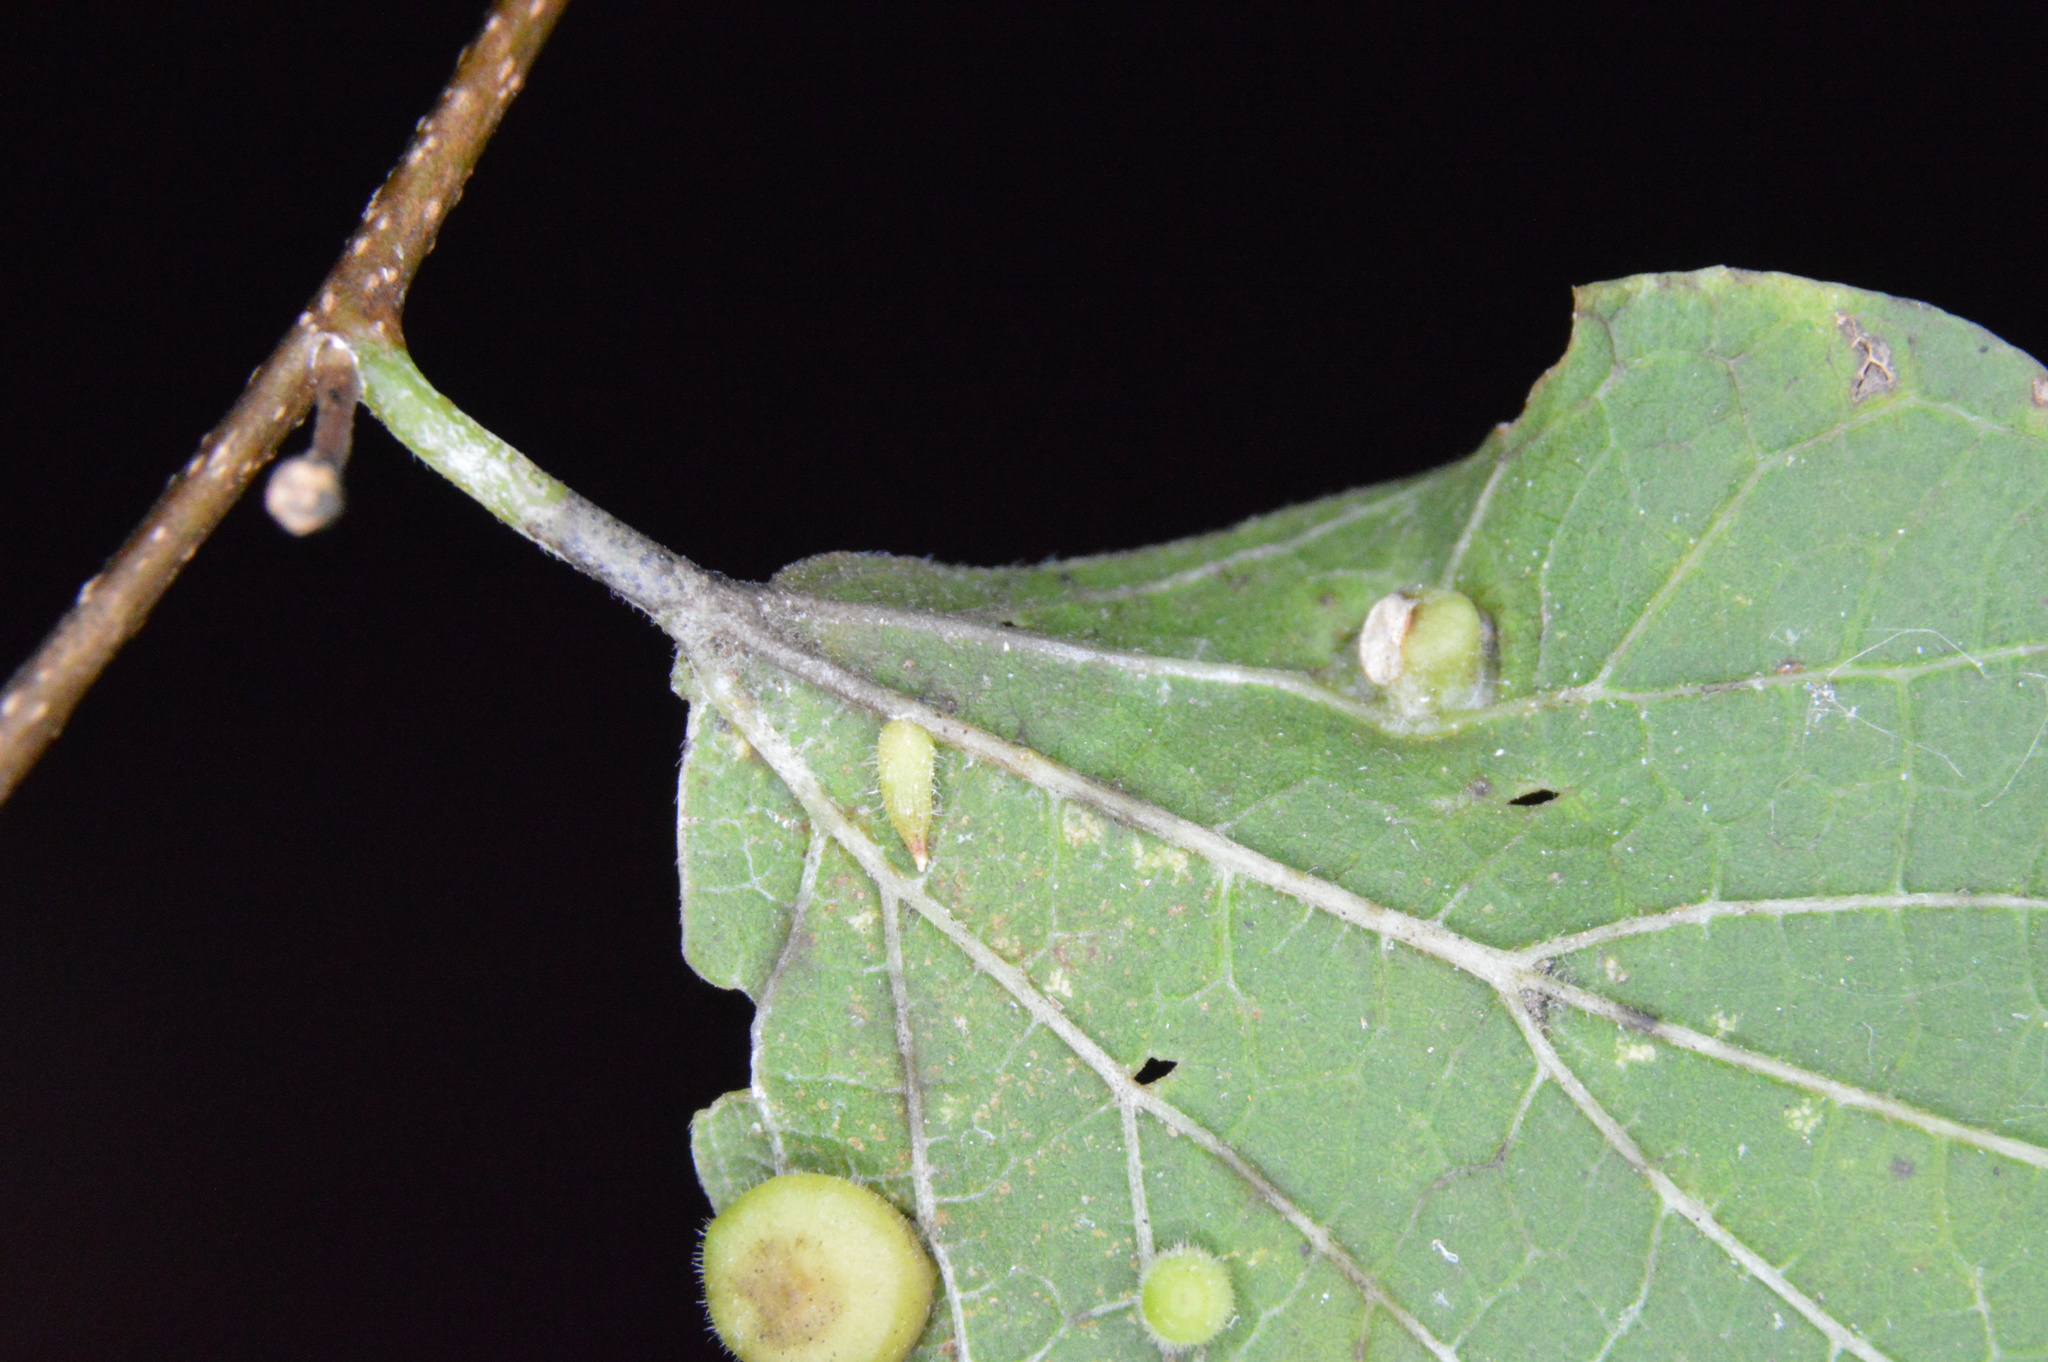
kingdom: Animalia
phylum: Arthropoda
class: Insecta
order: Diptera
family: Cecidomyiidae
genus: Celticecis
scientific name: Celticecis supina
